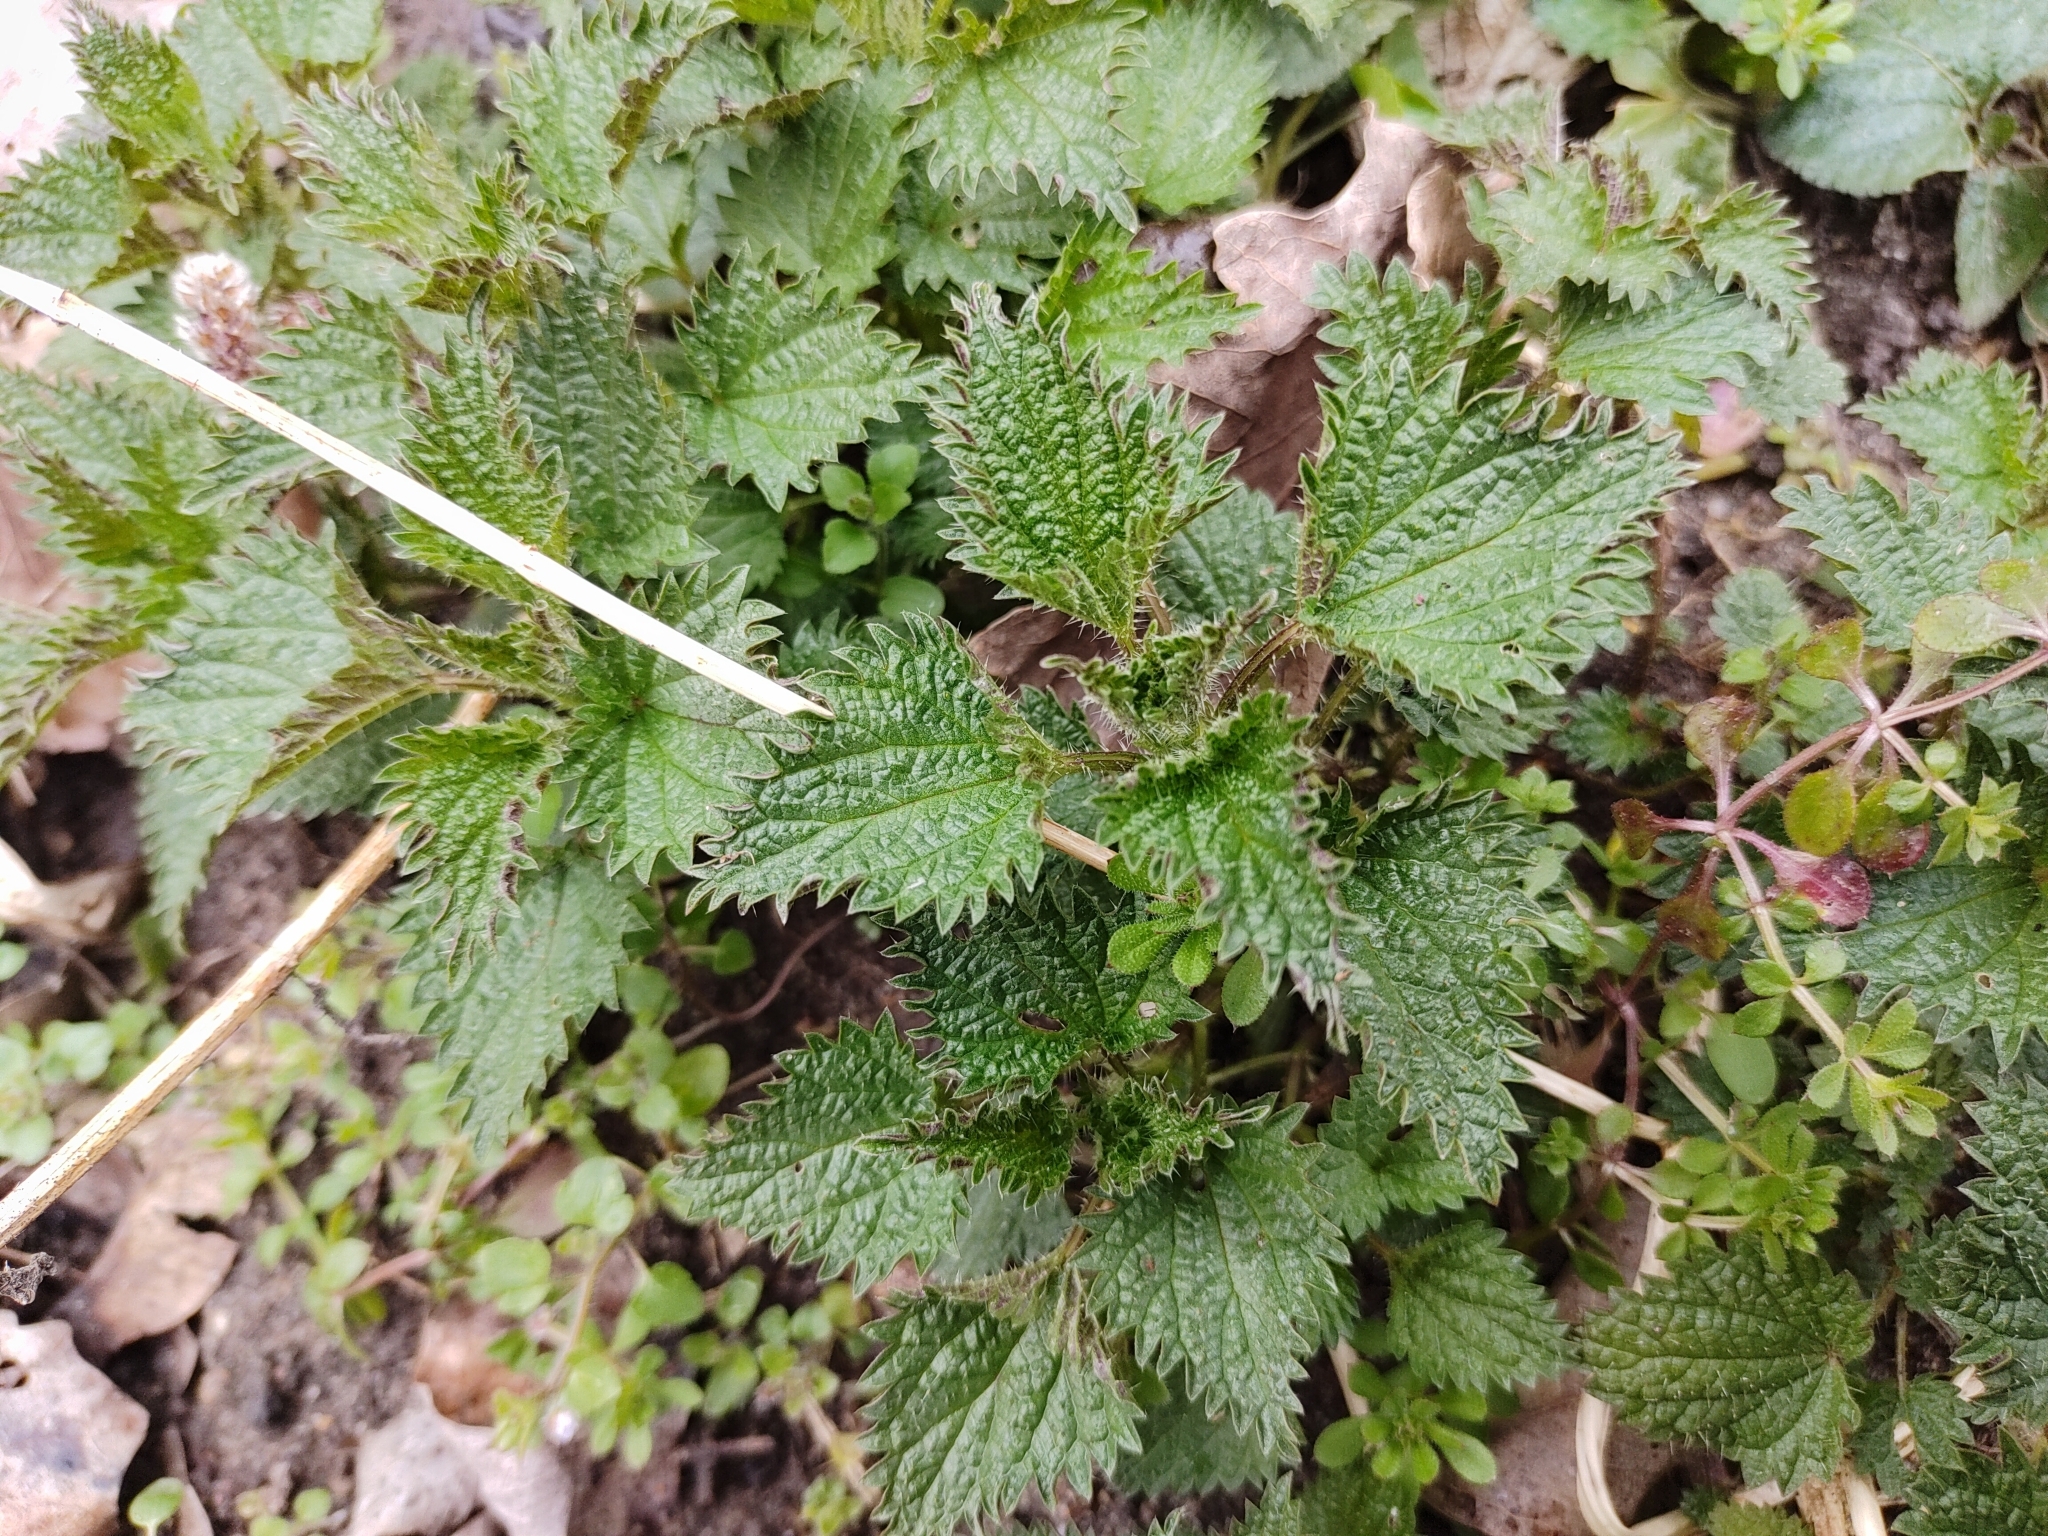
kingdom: Plantae
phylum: Tracheophyta
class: Magnoliopsida
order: Rosales
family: Urticaceae
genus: Urtica
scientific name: Urtica dioica
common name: Common nettle
